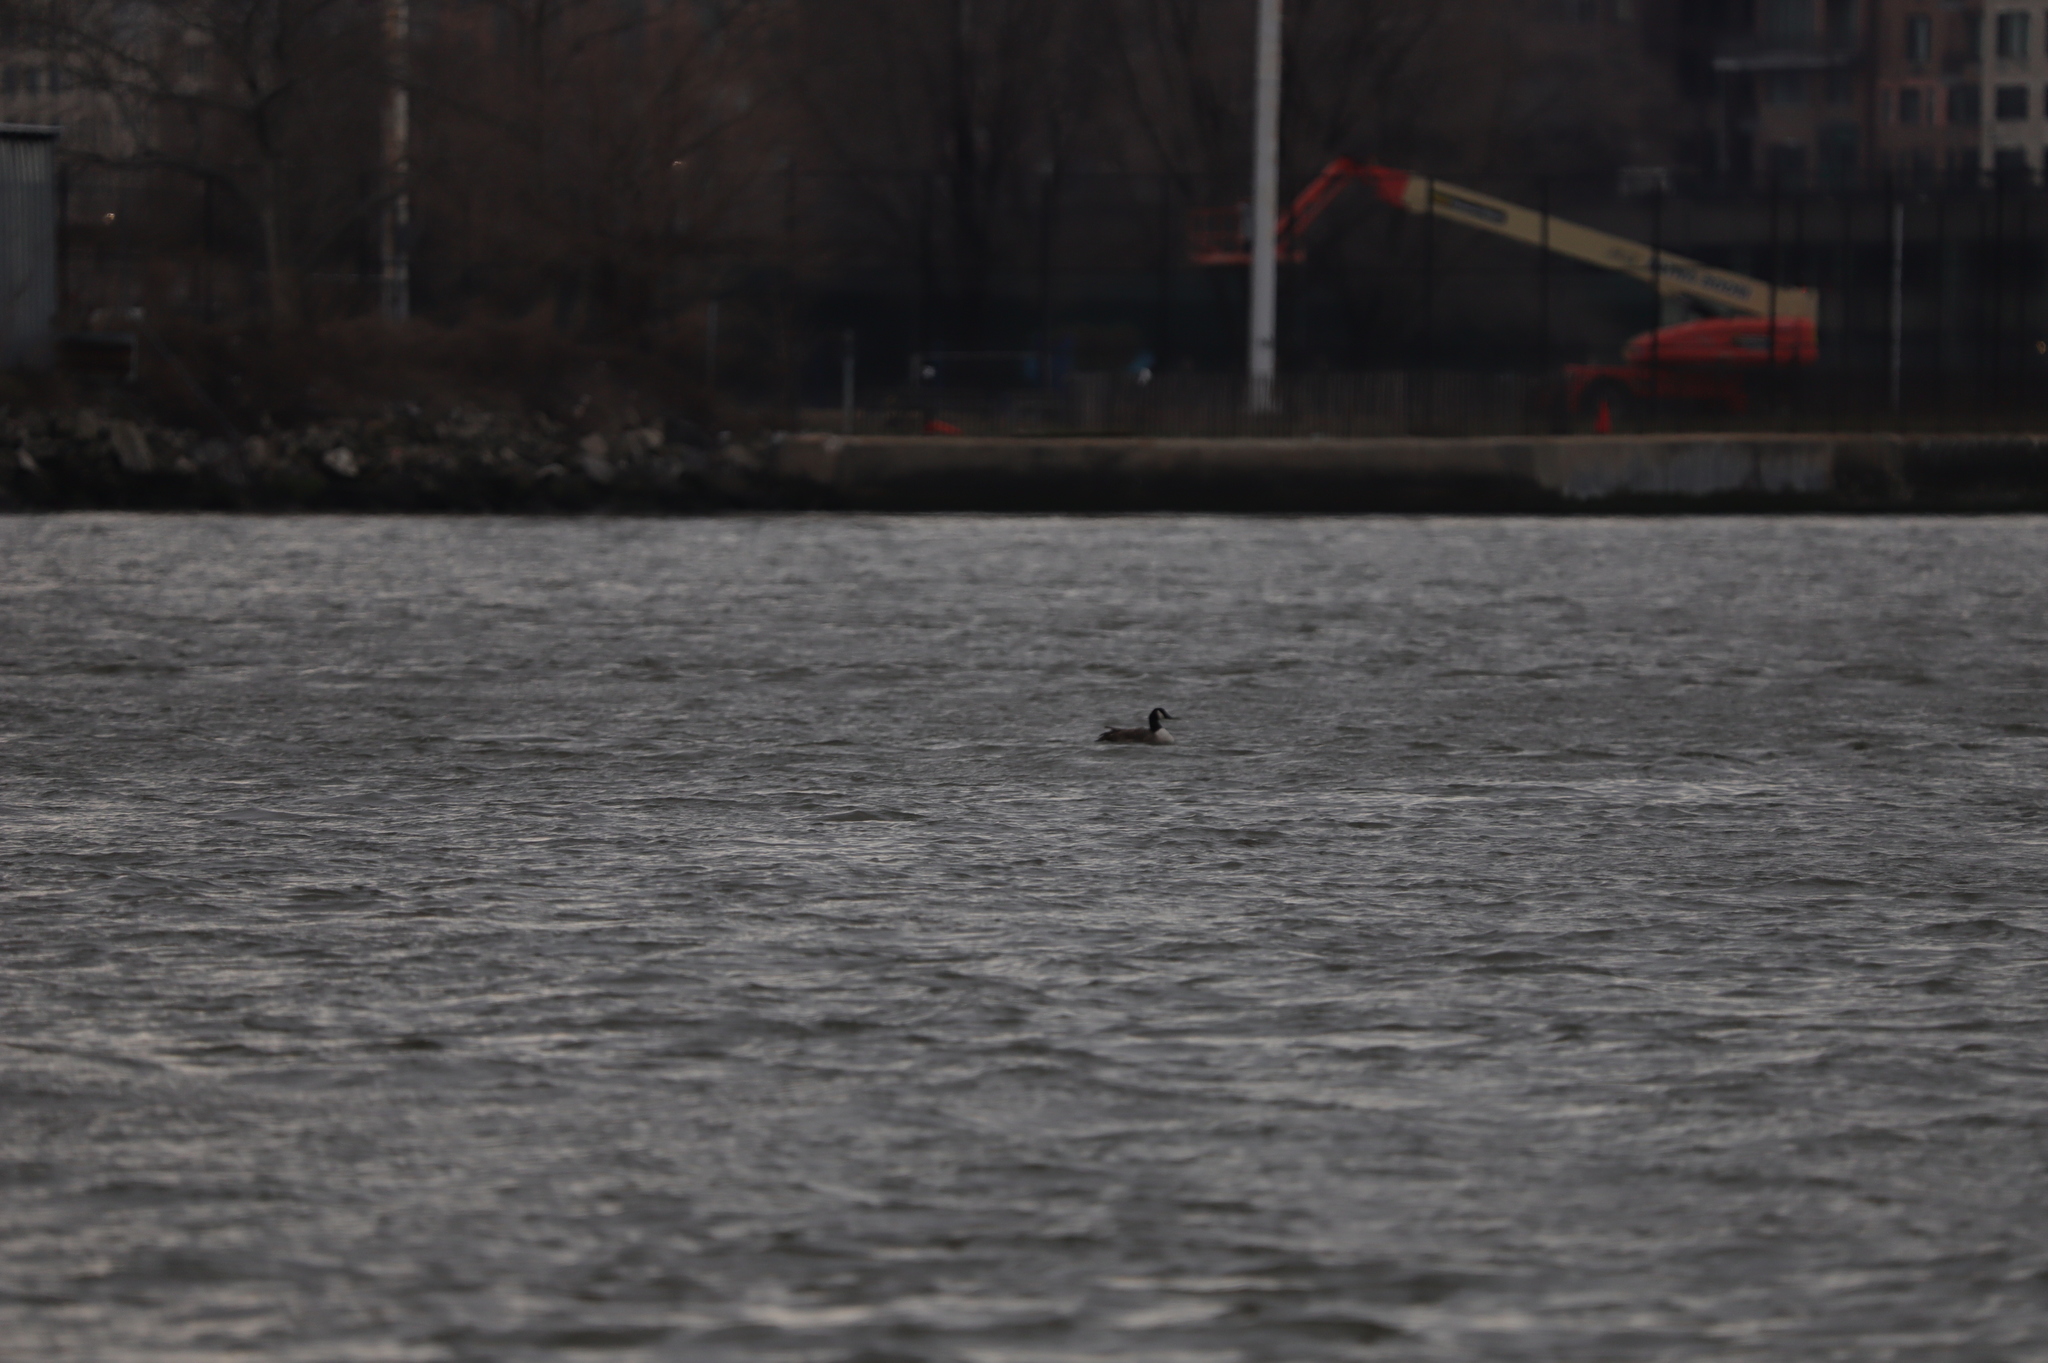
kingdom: Animalia
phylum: Chordata
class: Aves
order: Anseriformes
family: Anatidae
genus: Branta
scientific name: Branta canadensis
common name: Canada goose
